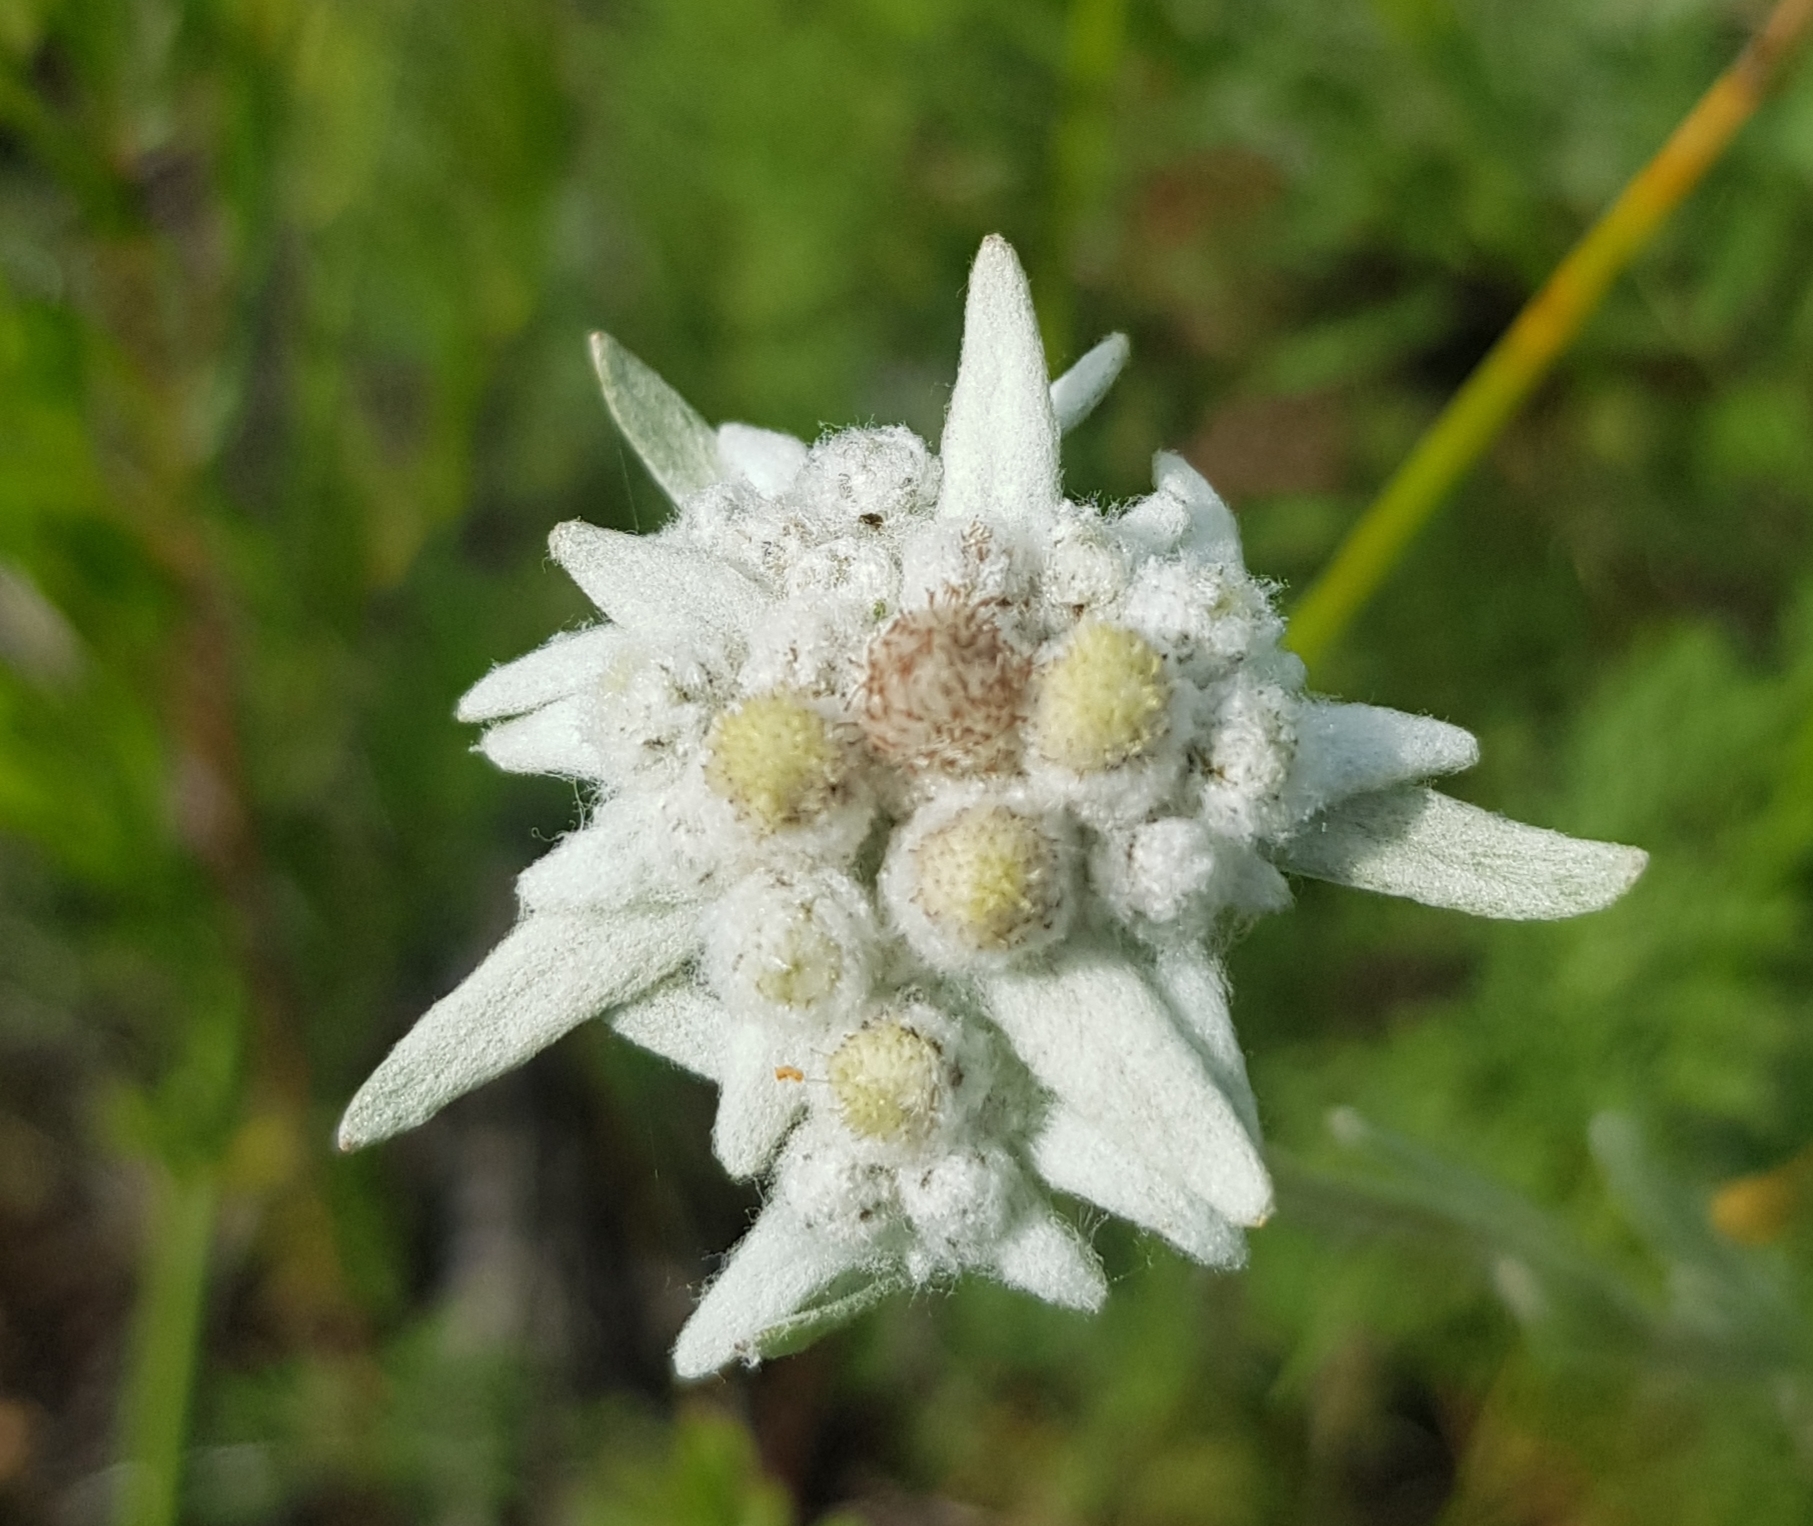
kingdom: Plantae
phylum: Tracheophyta
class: Magnoliopsida
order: Asterales
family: Asteraceae
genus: Leontopodium
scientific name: Leontopodium leontopodinum
